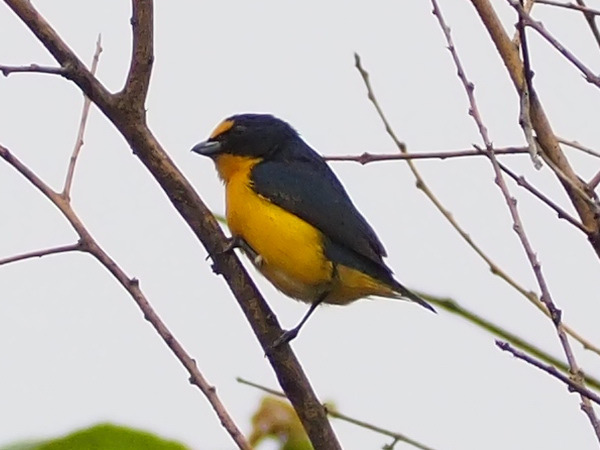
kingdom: Animalia
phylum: Chordata
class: Aves
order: Passeriformes
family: Fringillidae
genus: Euphonia
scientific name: Euphonia hirundinacea
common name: Yellow-throated euphonia
